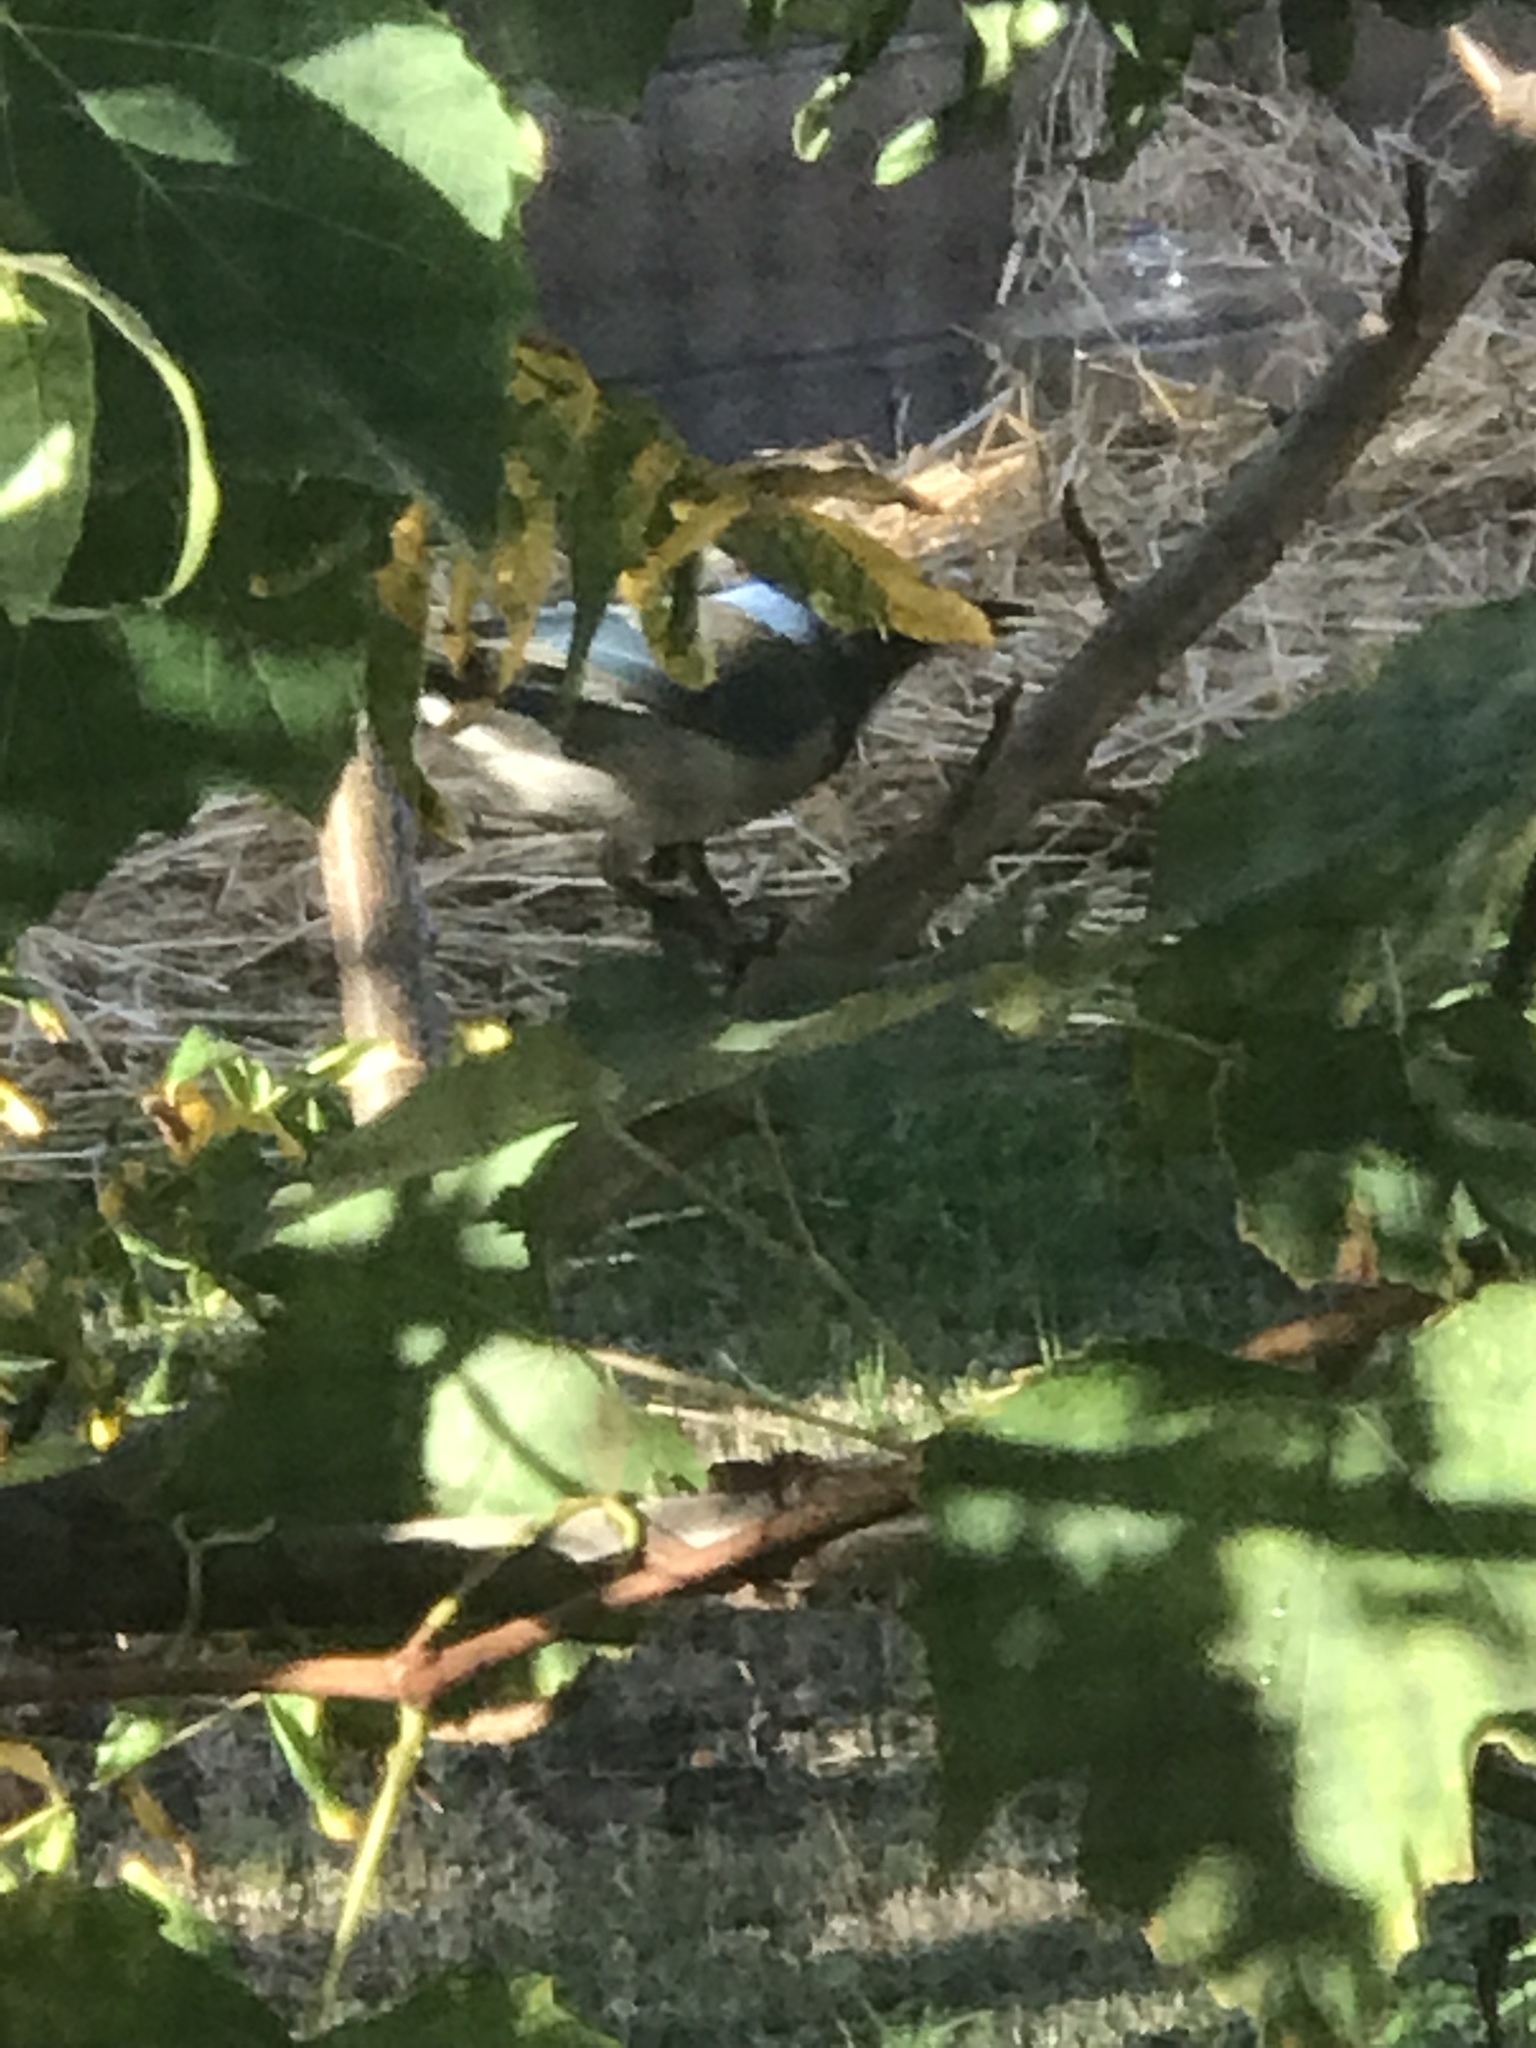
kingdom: Animalia
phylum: Chordata
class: Aves
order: Passeriformes
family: Corvidae
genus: Aphelocoma
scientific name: Aphelocoma californica
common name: California scrub-jay
